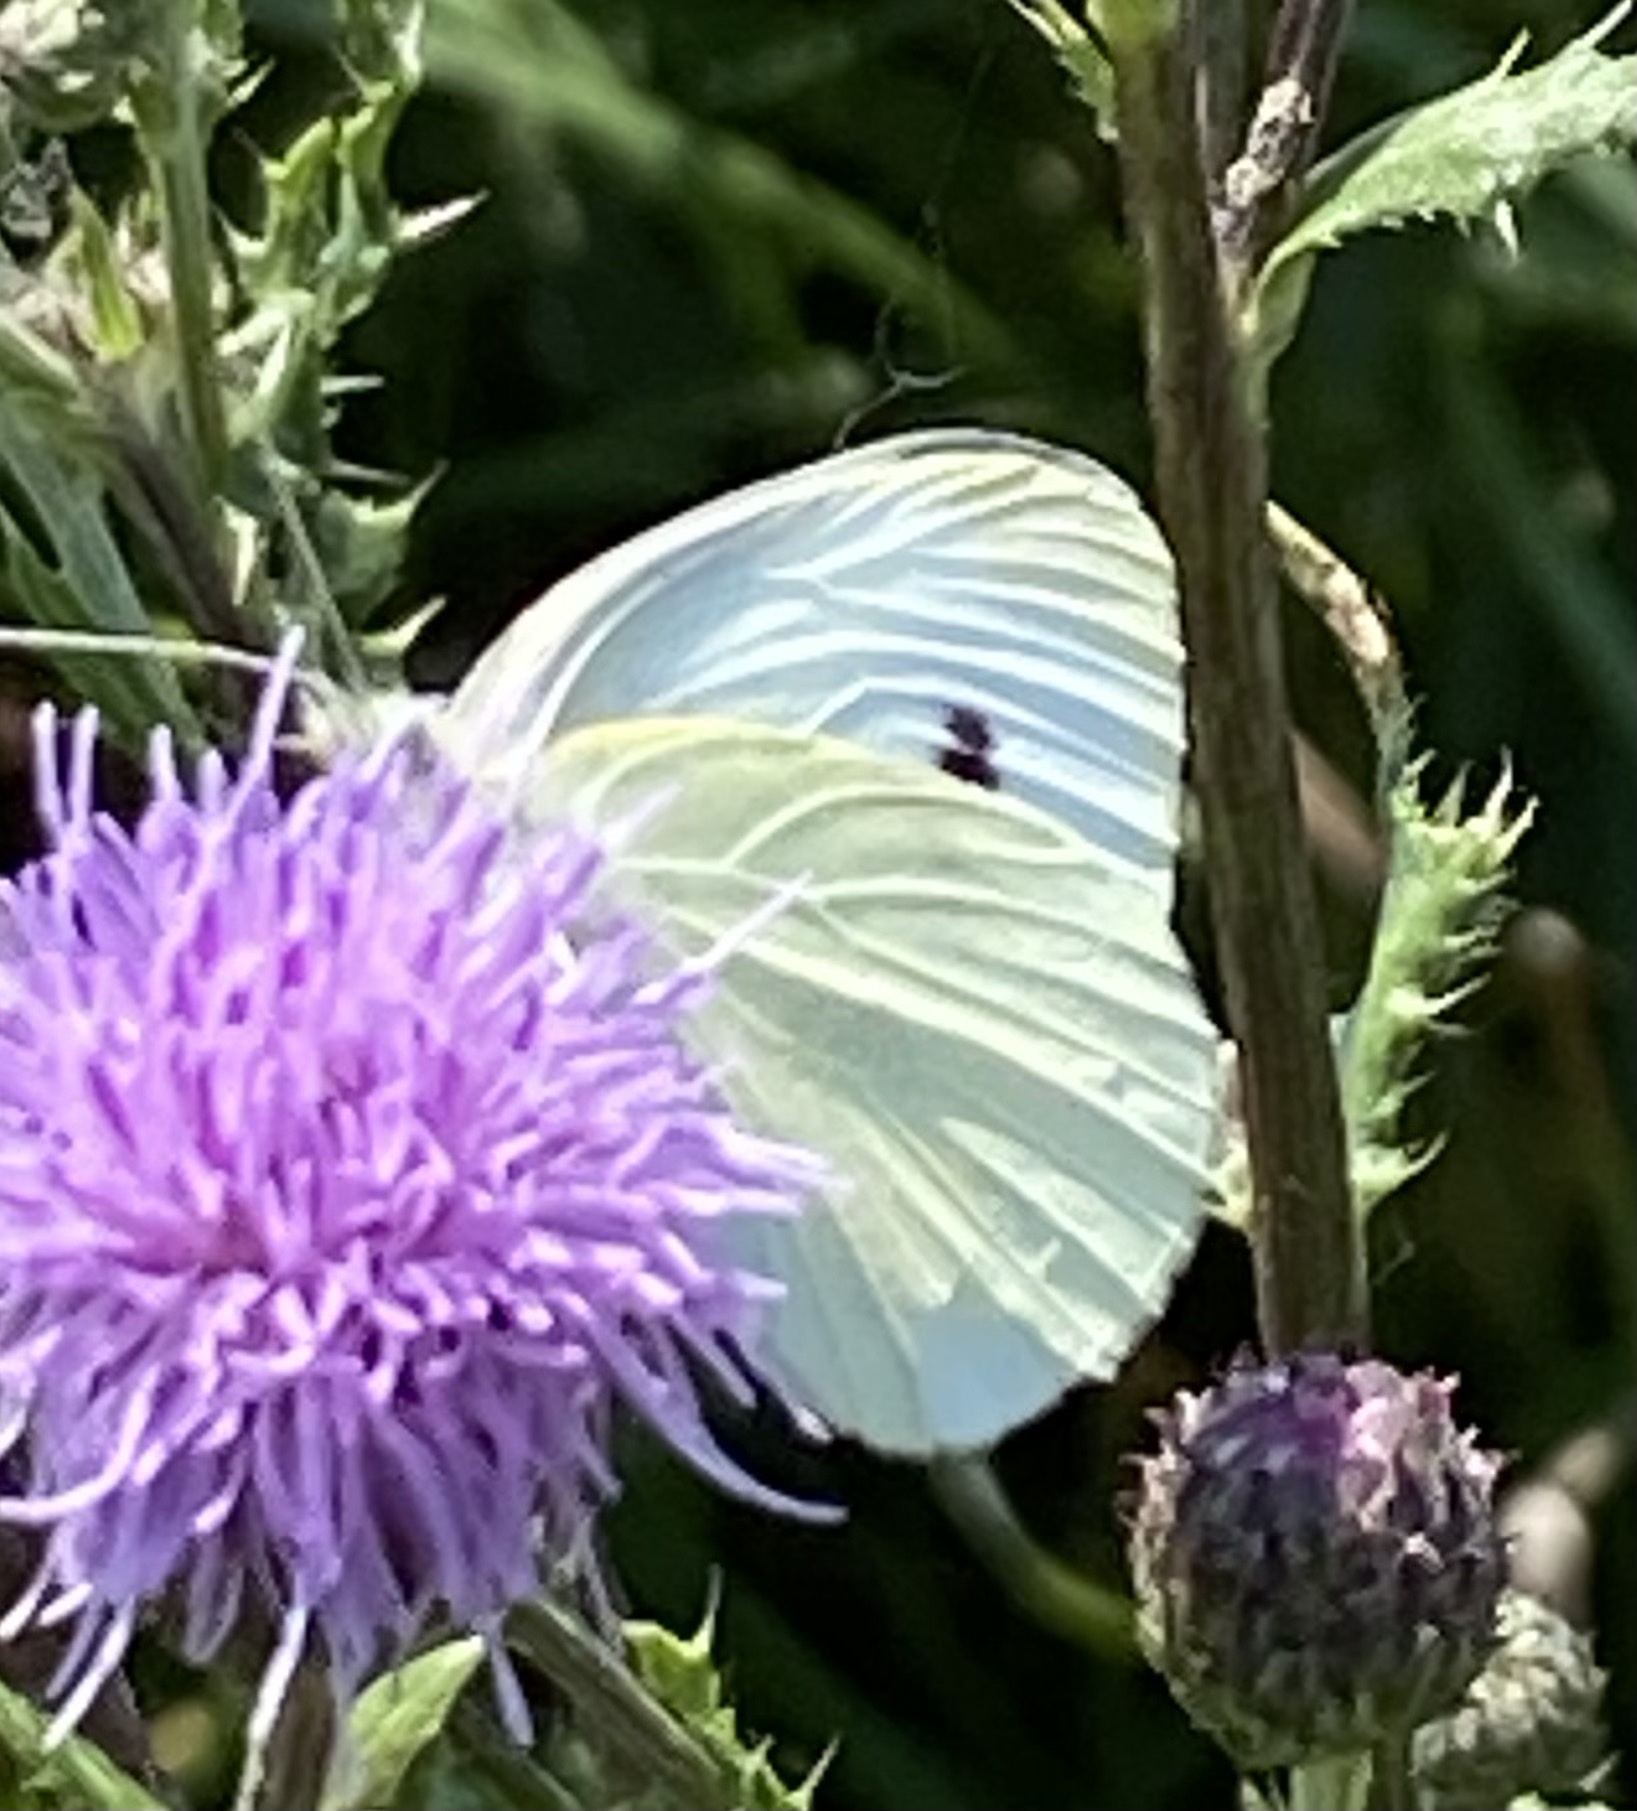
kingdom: Animalia
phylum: Arthropoda
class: Insecta
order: Lepidoptera
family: Pieridae
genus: Pieris
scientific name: Pieris brassicae
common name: Large white
